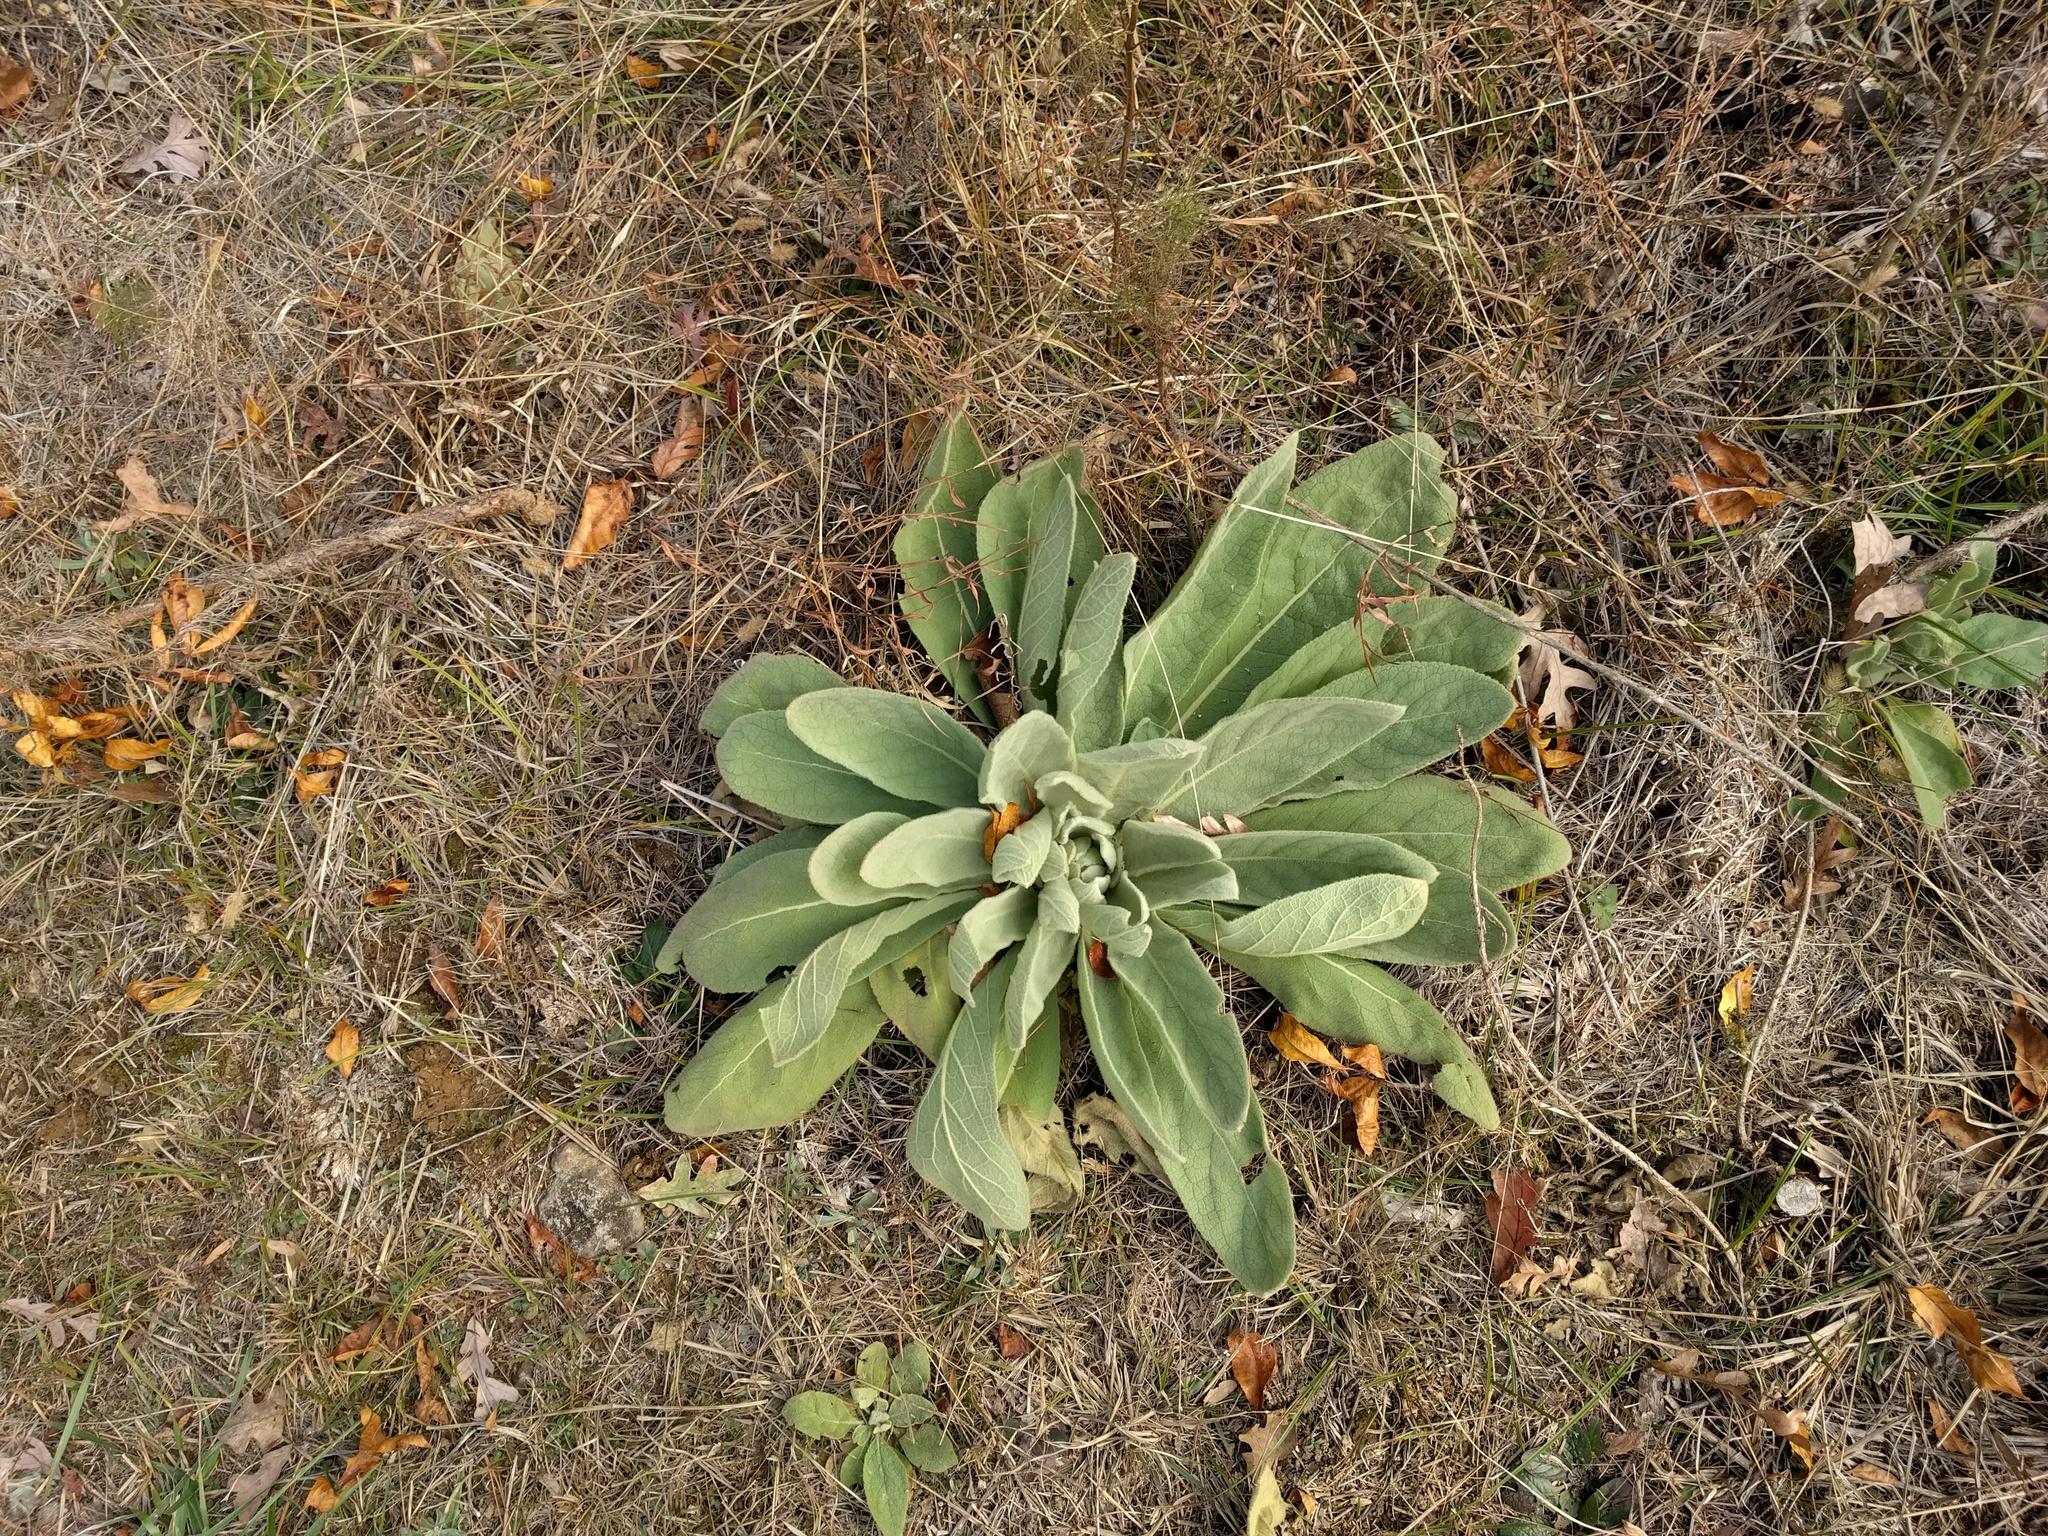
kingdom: Plantae
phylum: Tracheophyta
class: Magnoliopsida
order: Lamiales
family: Scrophulariaceae
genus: Verbascum
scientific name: Verbascum thapsus
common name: Common mullein
